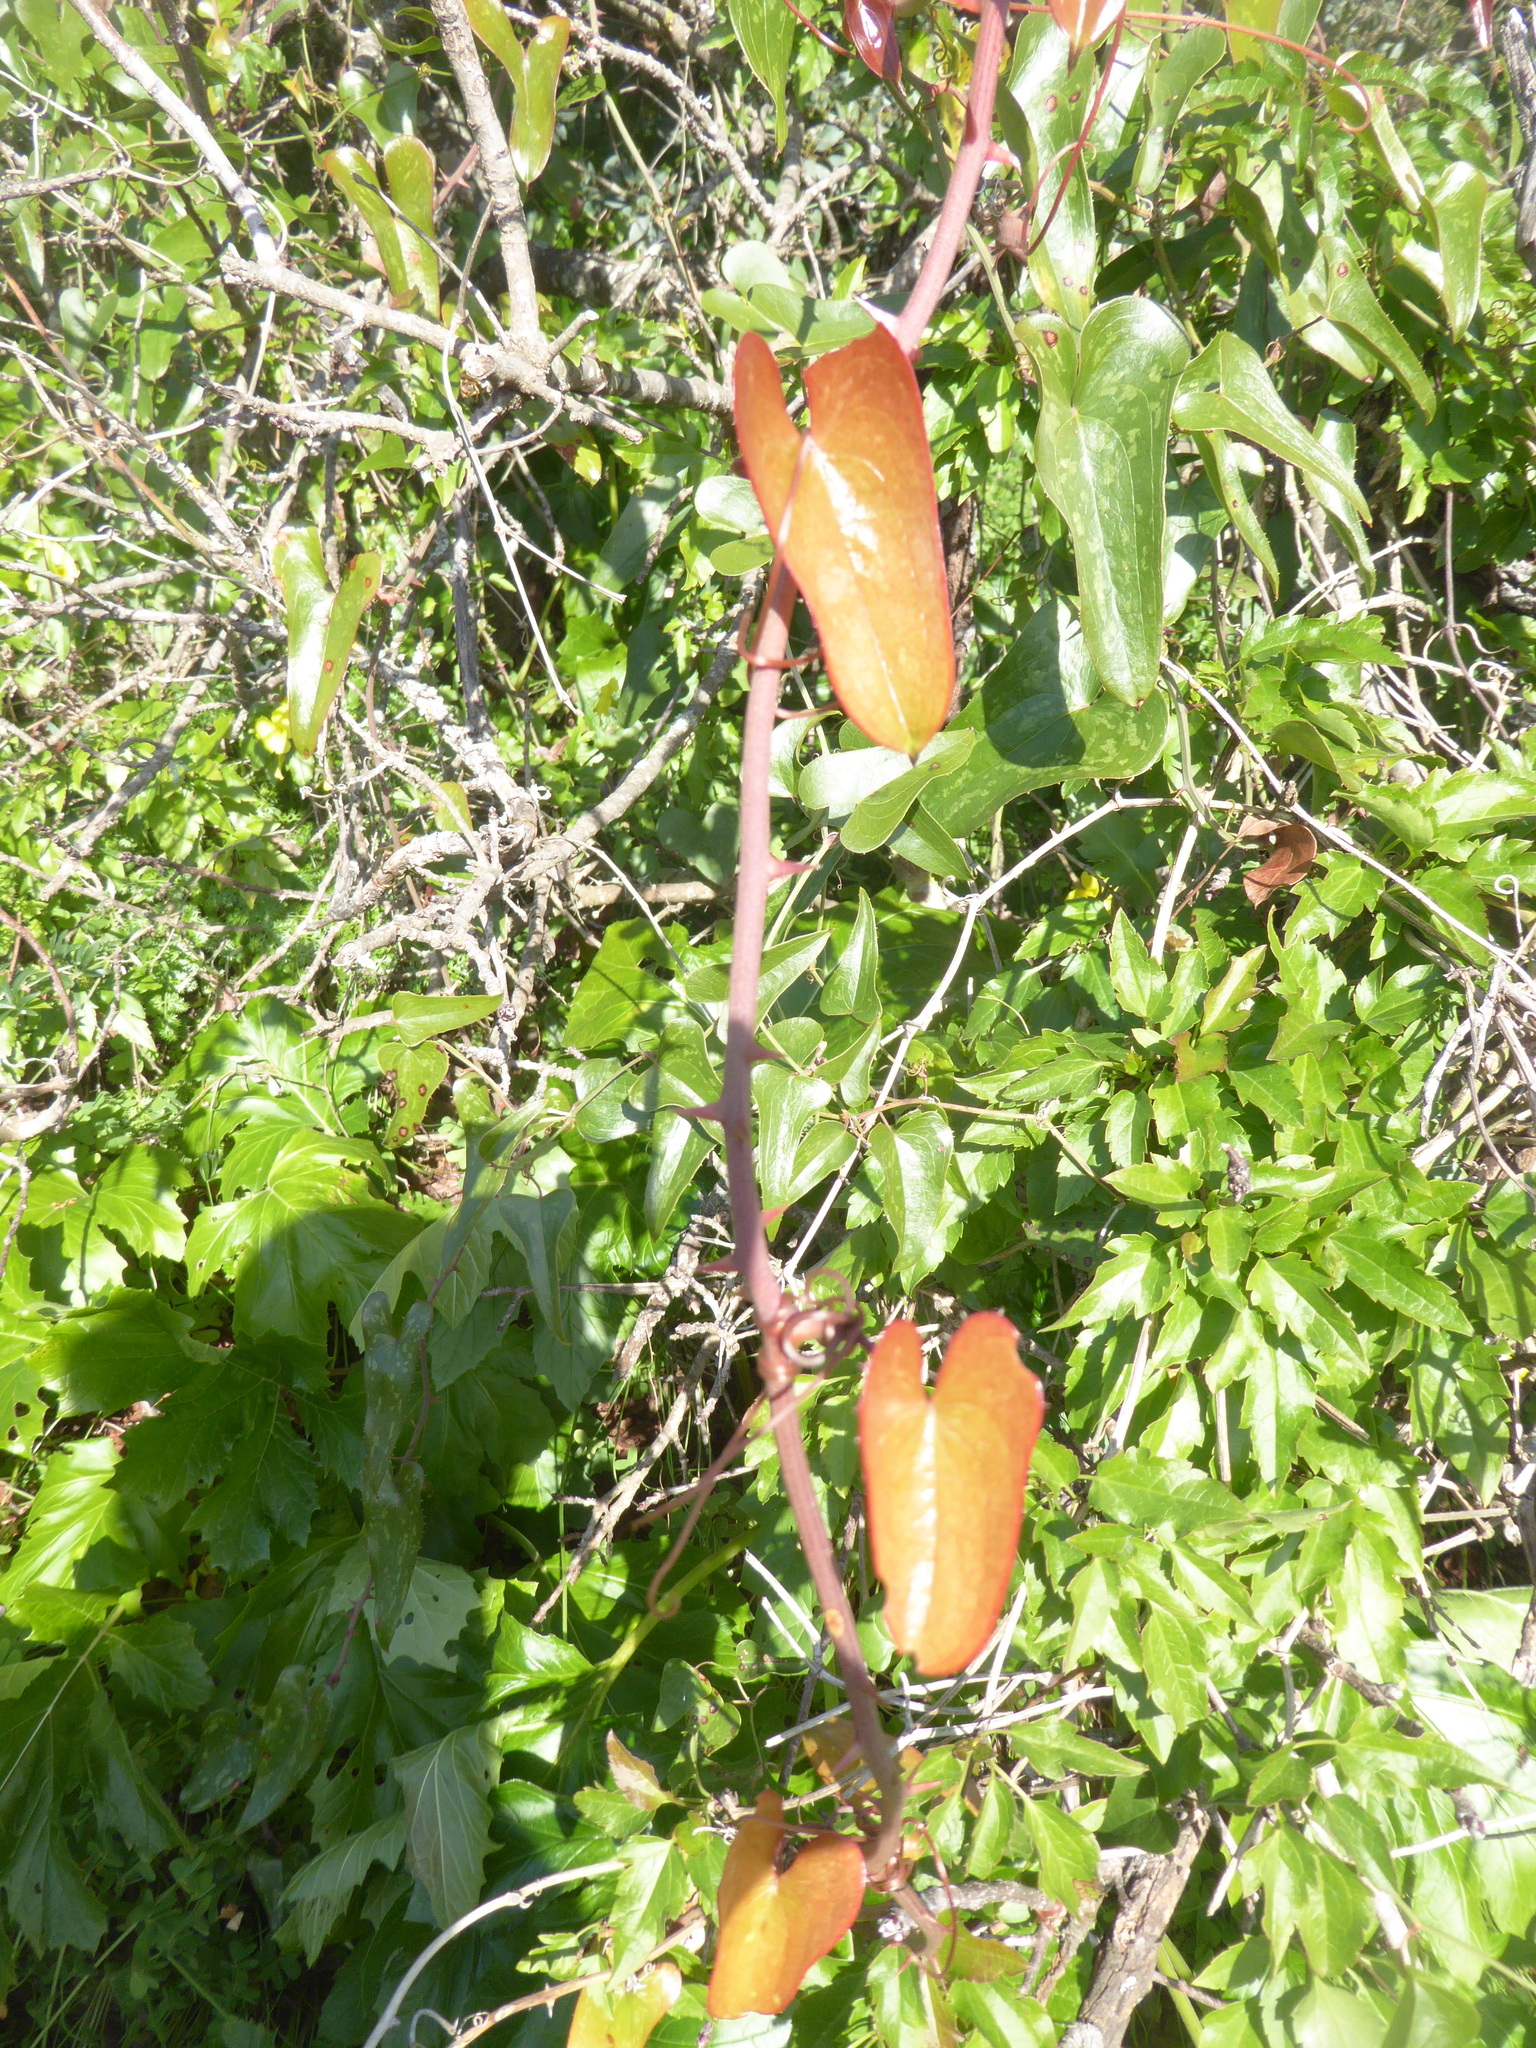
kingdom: Plantae
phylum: Tracheophyta
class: Liliopsida
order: Liliales
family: Smilacaceae
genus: Smilax
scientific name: Smilax aspera
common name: Common smilax
